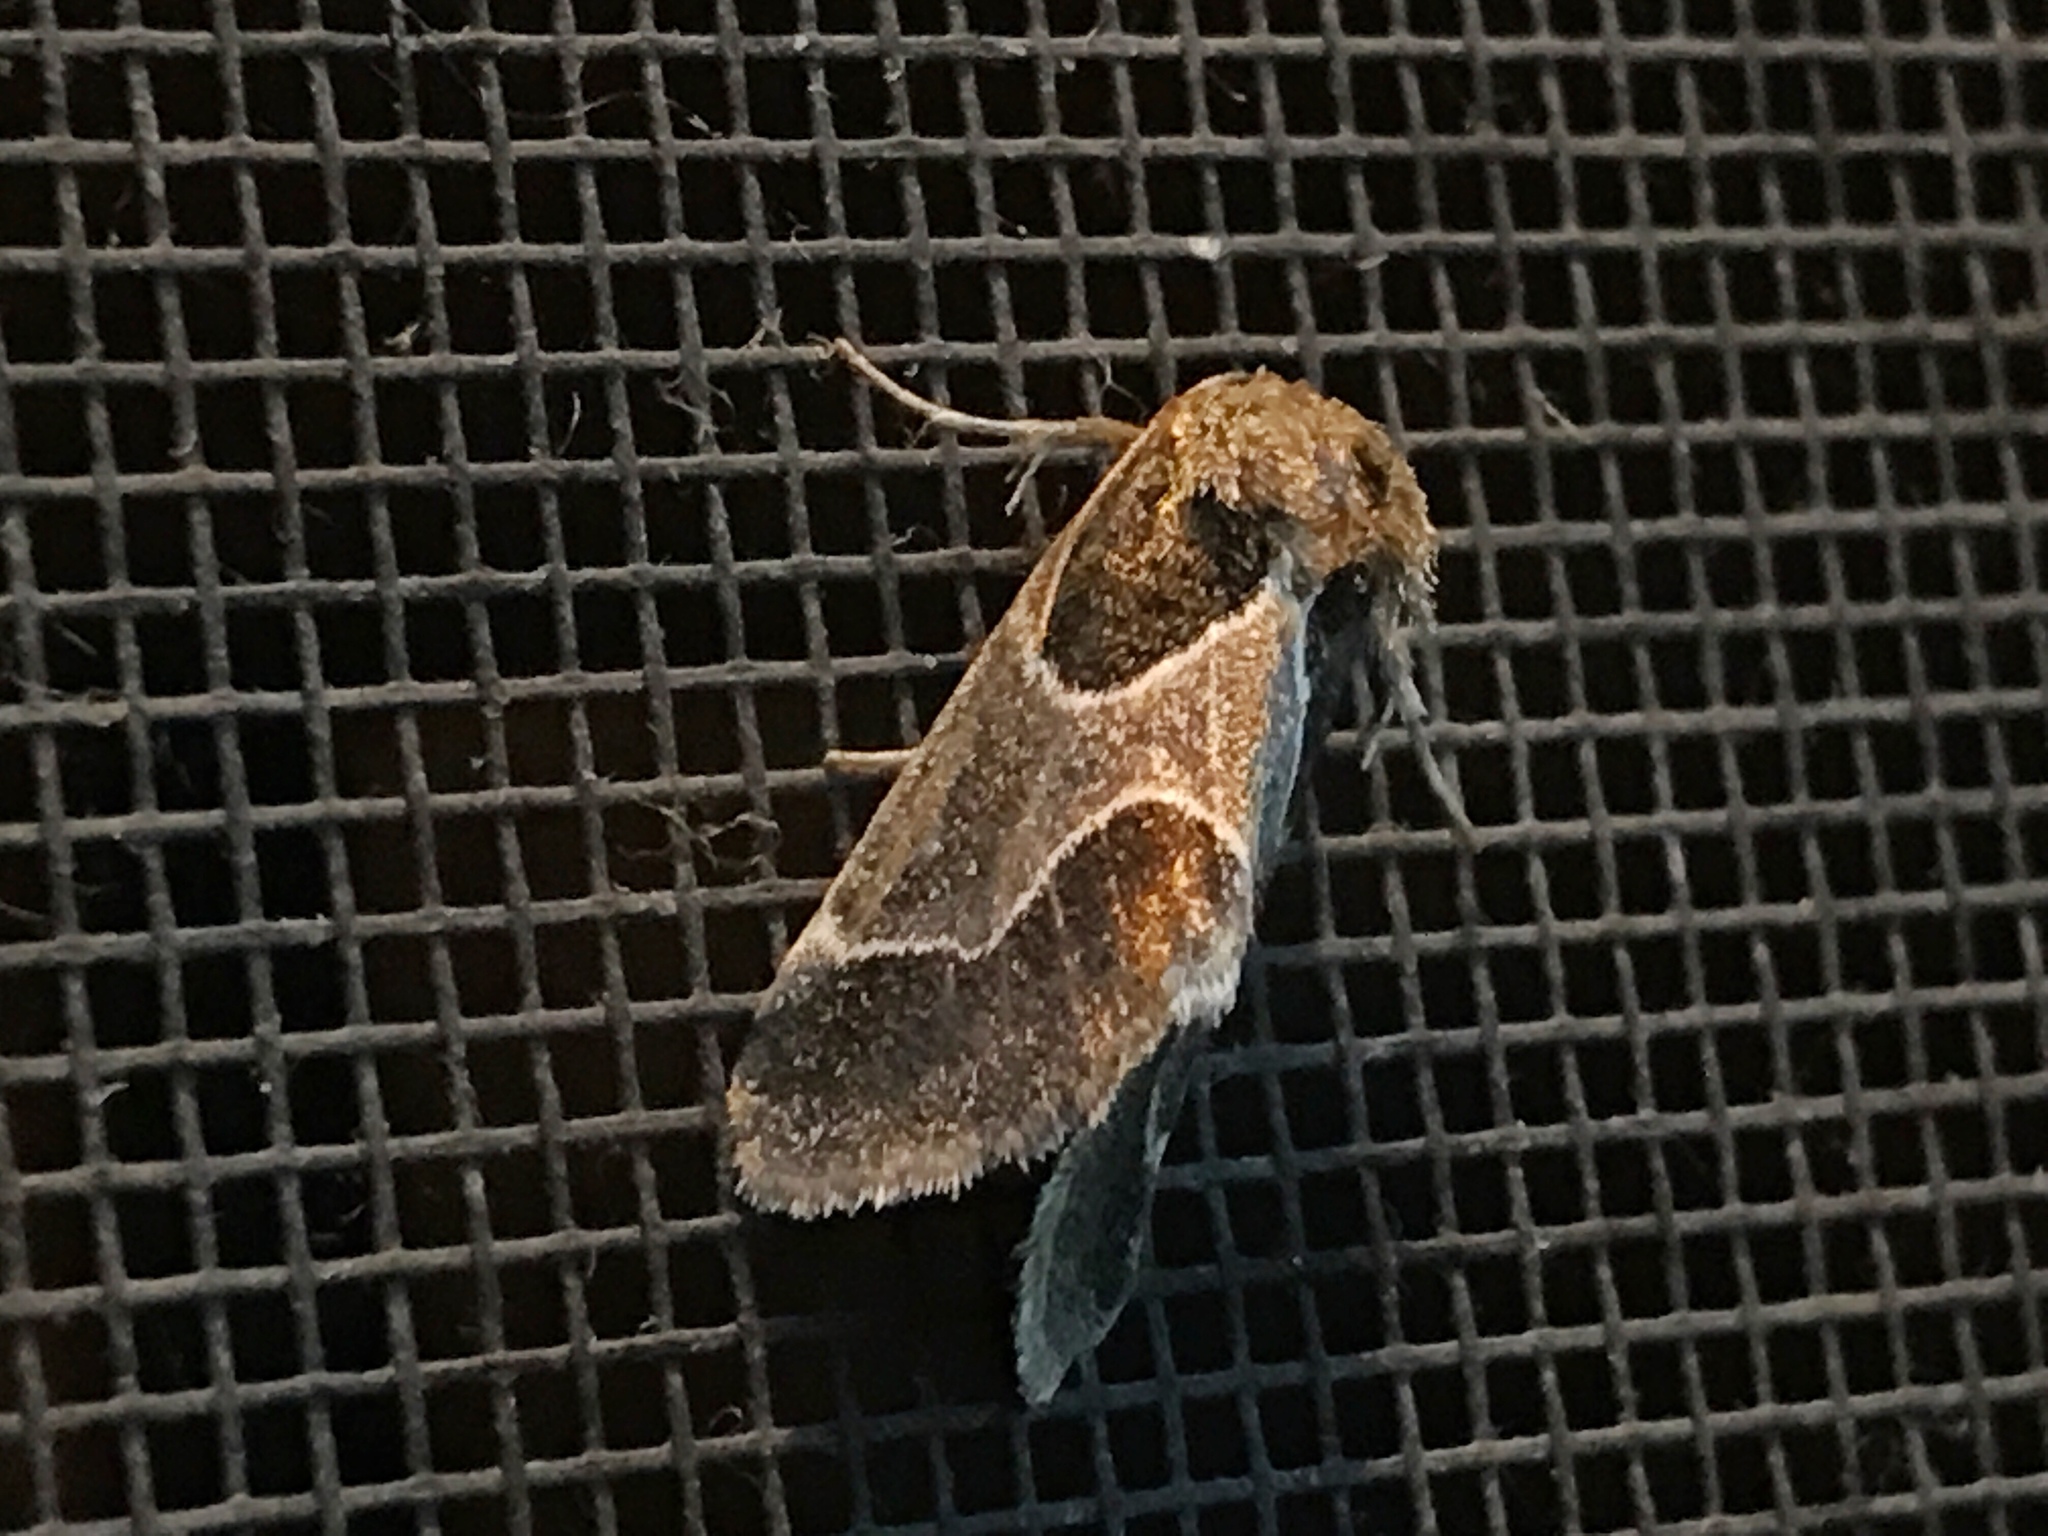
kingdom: Animalia
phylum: Arthropoda
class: Insecta
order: Lepidoptera
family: Noctuidae
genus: Schinia
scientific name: Schinia rivulosa
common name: Scarce meal-moth
